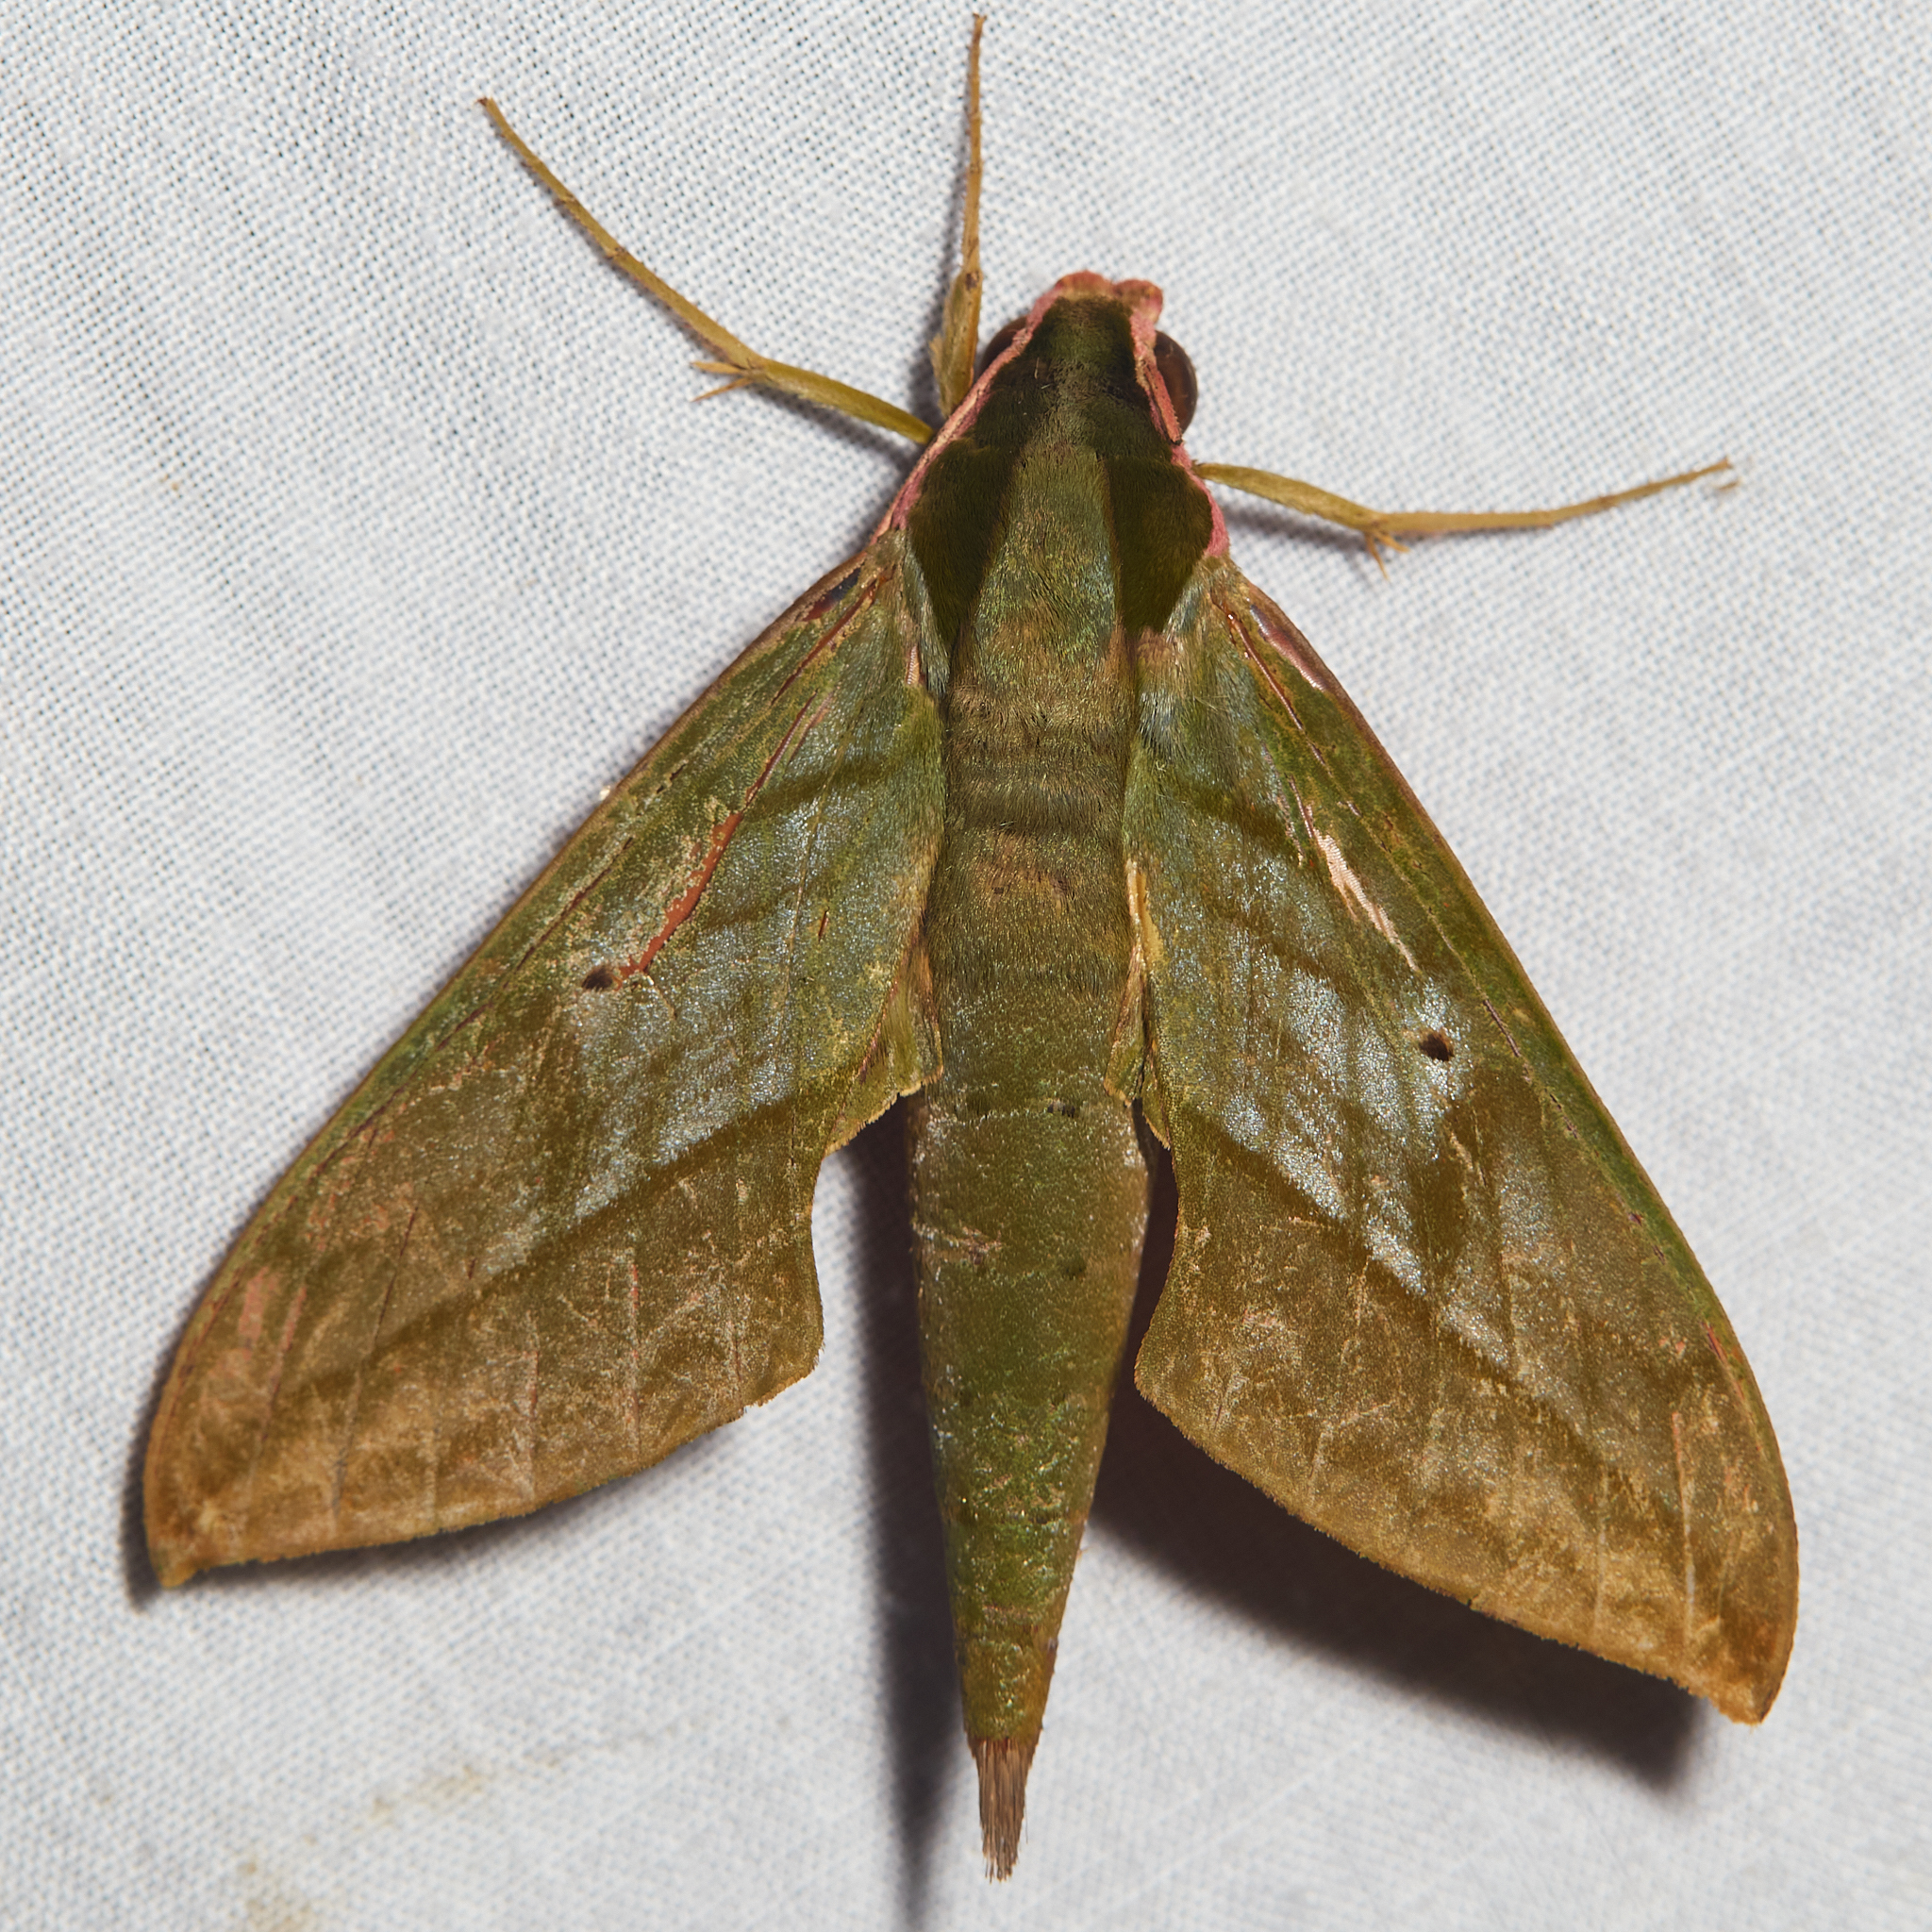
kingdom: Animalia
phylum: Arthropoda
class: Insecta
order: Lepidoptera
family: Sphingidae
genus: Xylophanes
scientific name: Xylophanes belti
